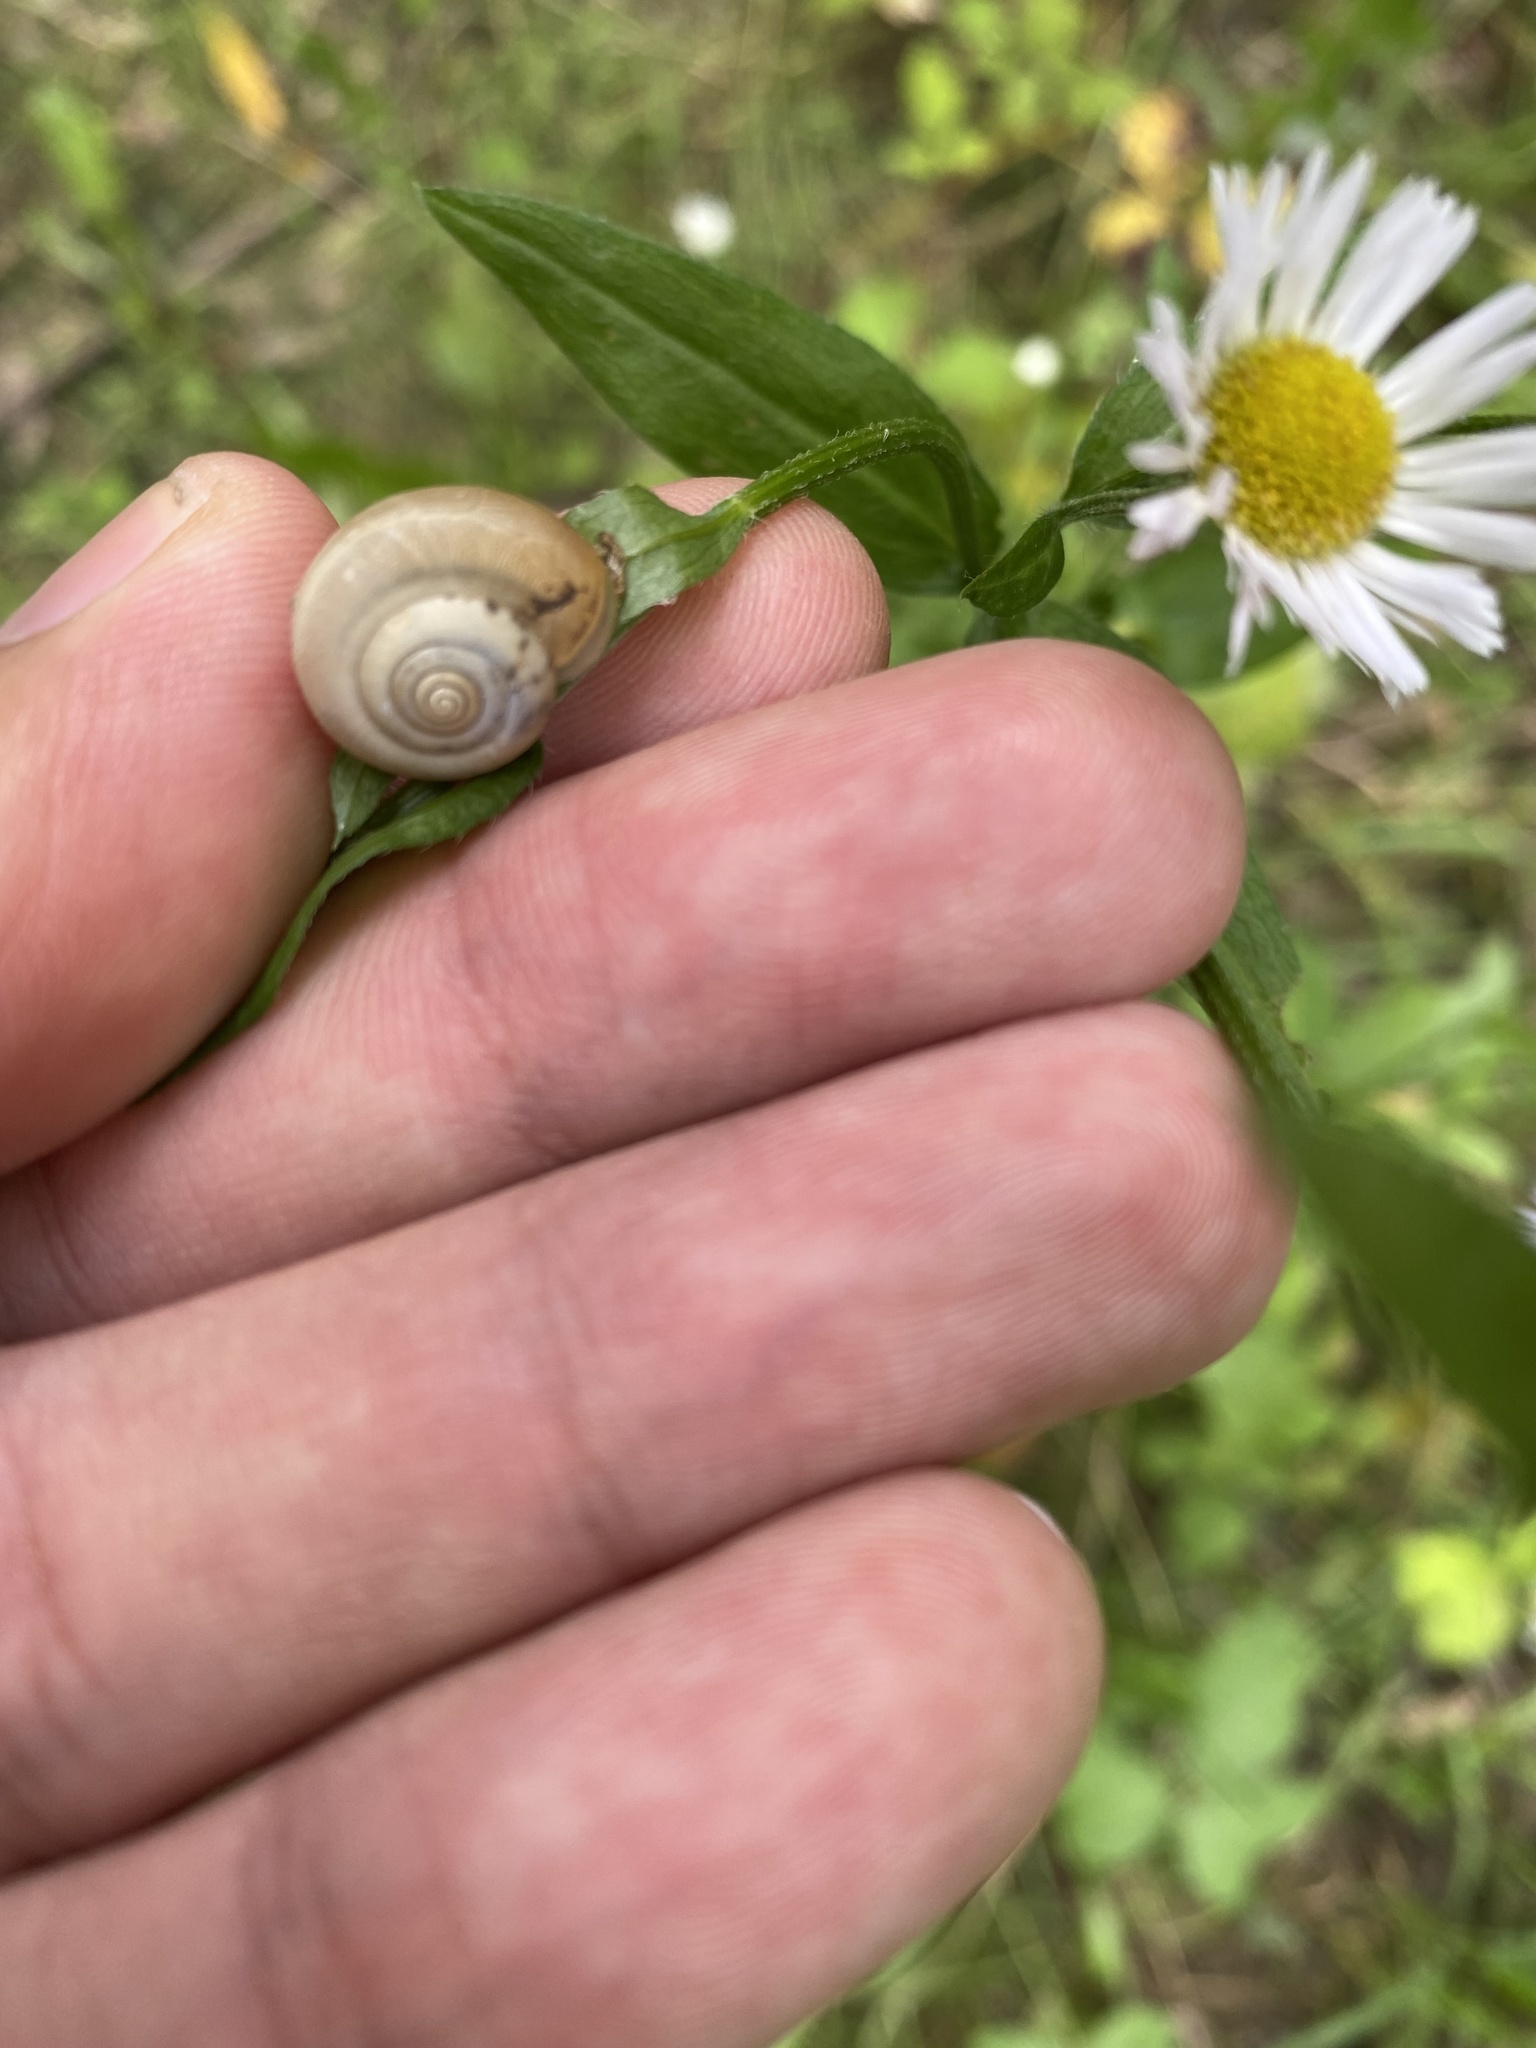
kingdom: Animalia
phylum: Mollusca
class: Gastropoda
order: Stylommatophora
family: Hygromiidae
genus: Monacha
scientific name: Monacha
